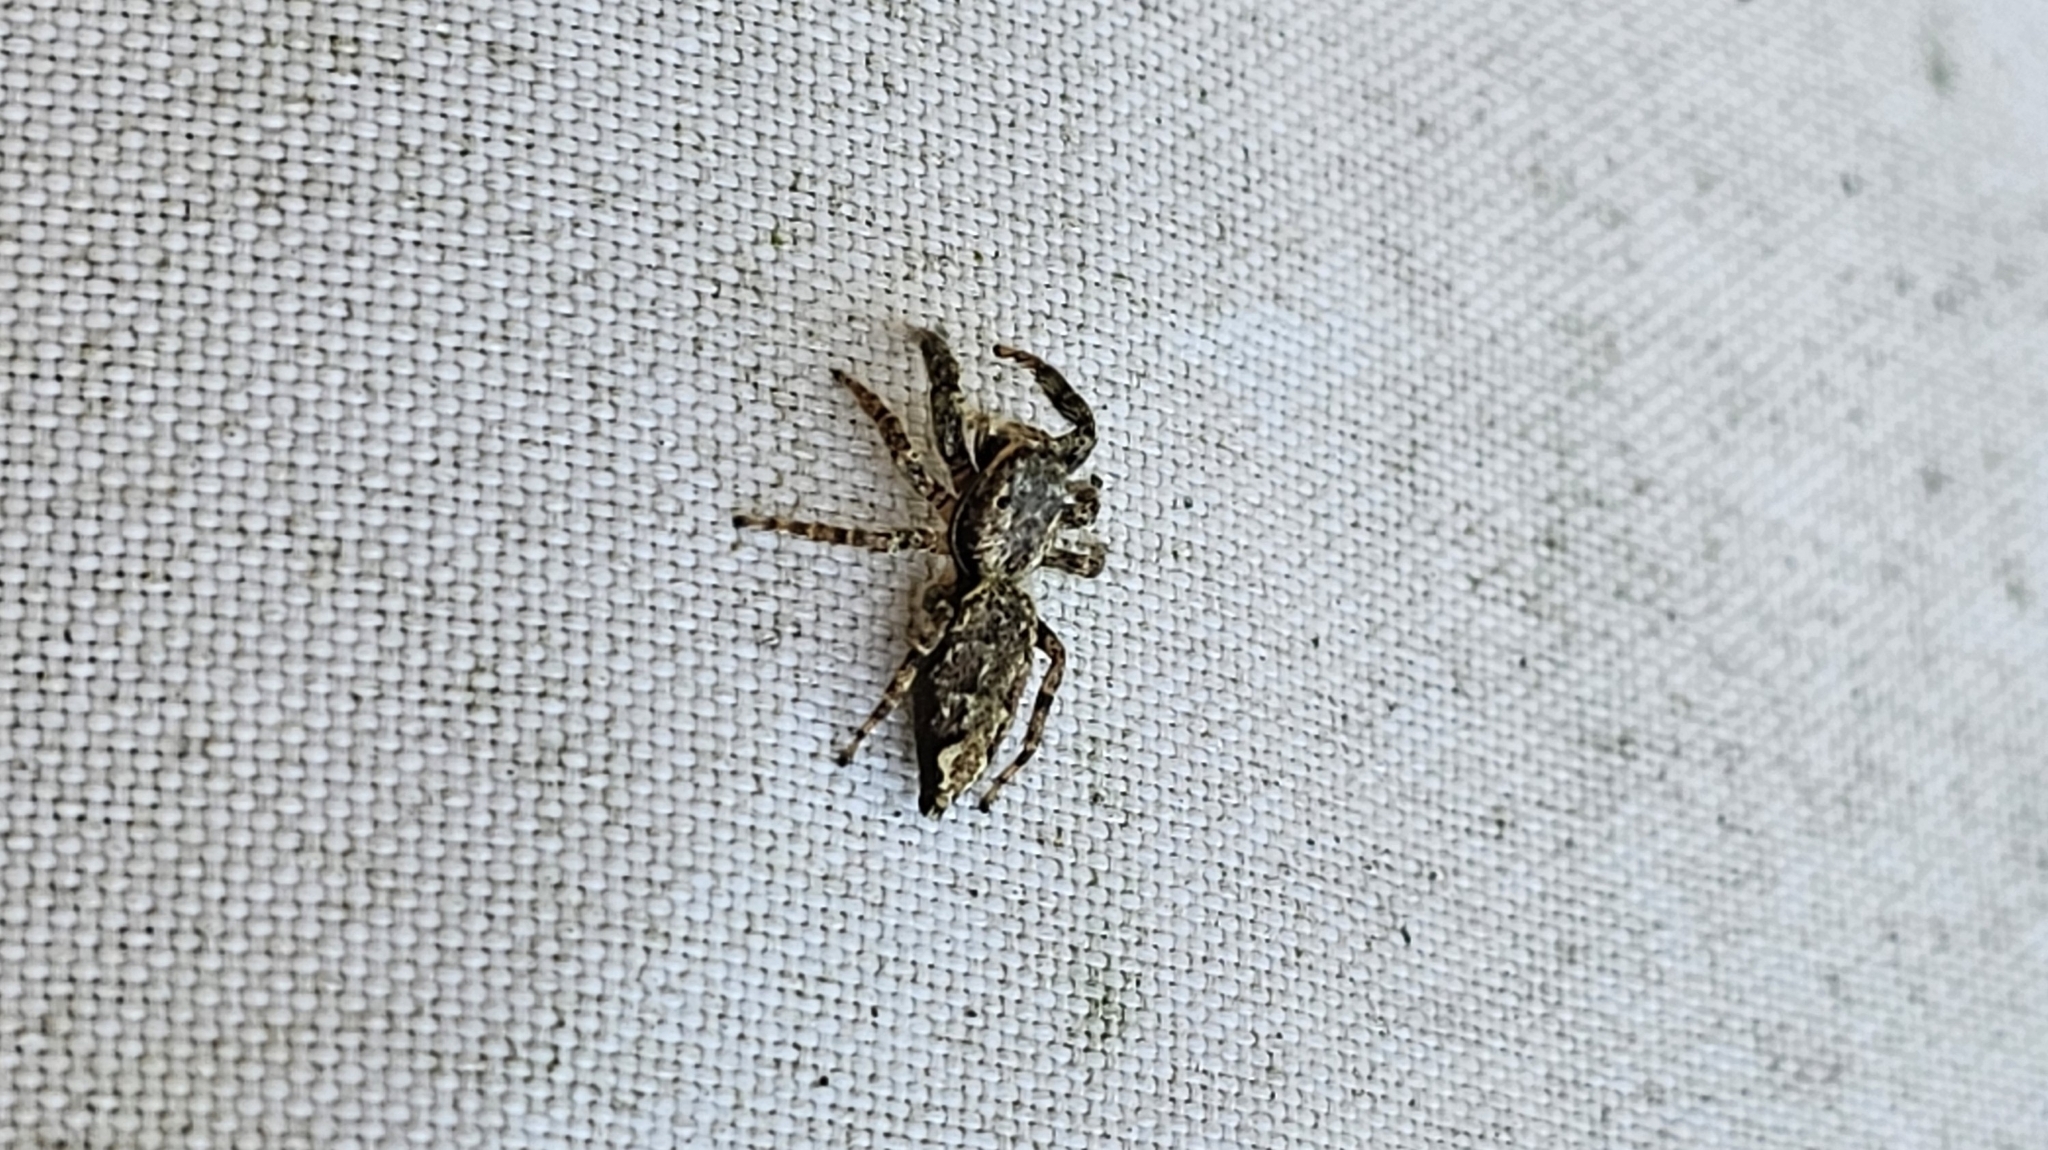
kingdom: Animalia
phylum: Arthropoda
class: Arachnida
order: Araneae
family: Salticidae
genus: Marpissa
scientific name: Marpissa muscosa
